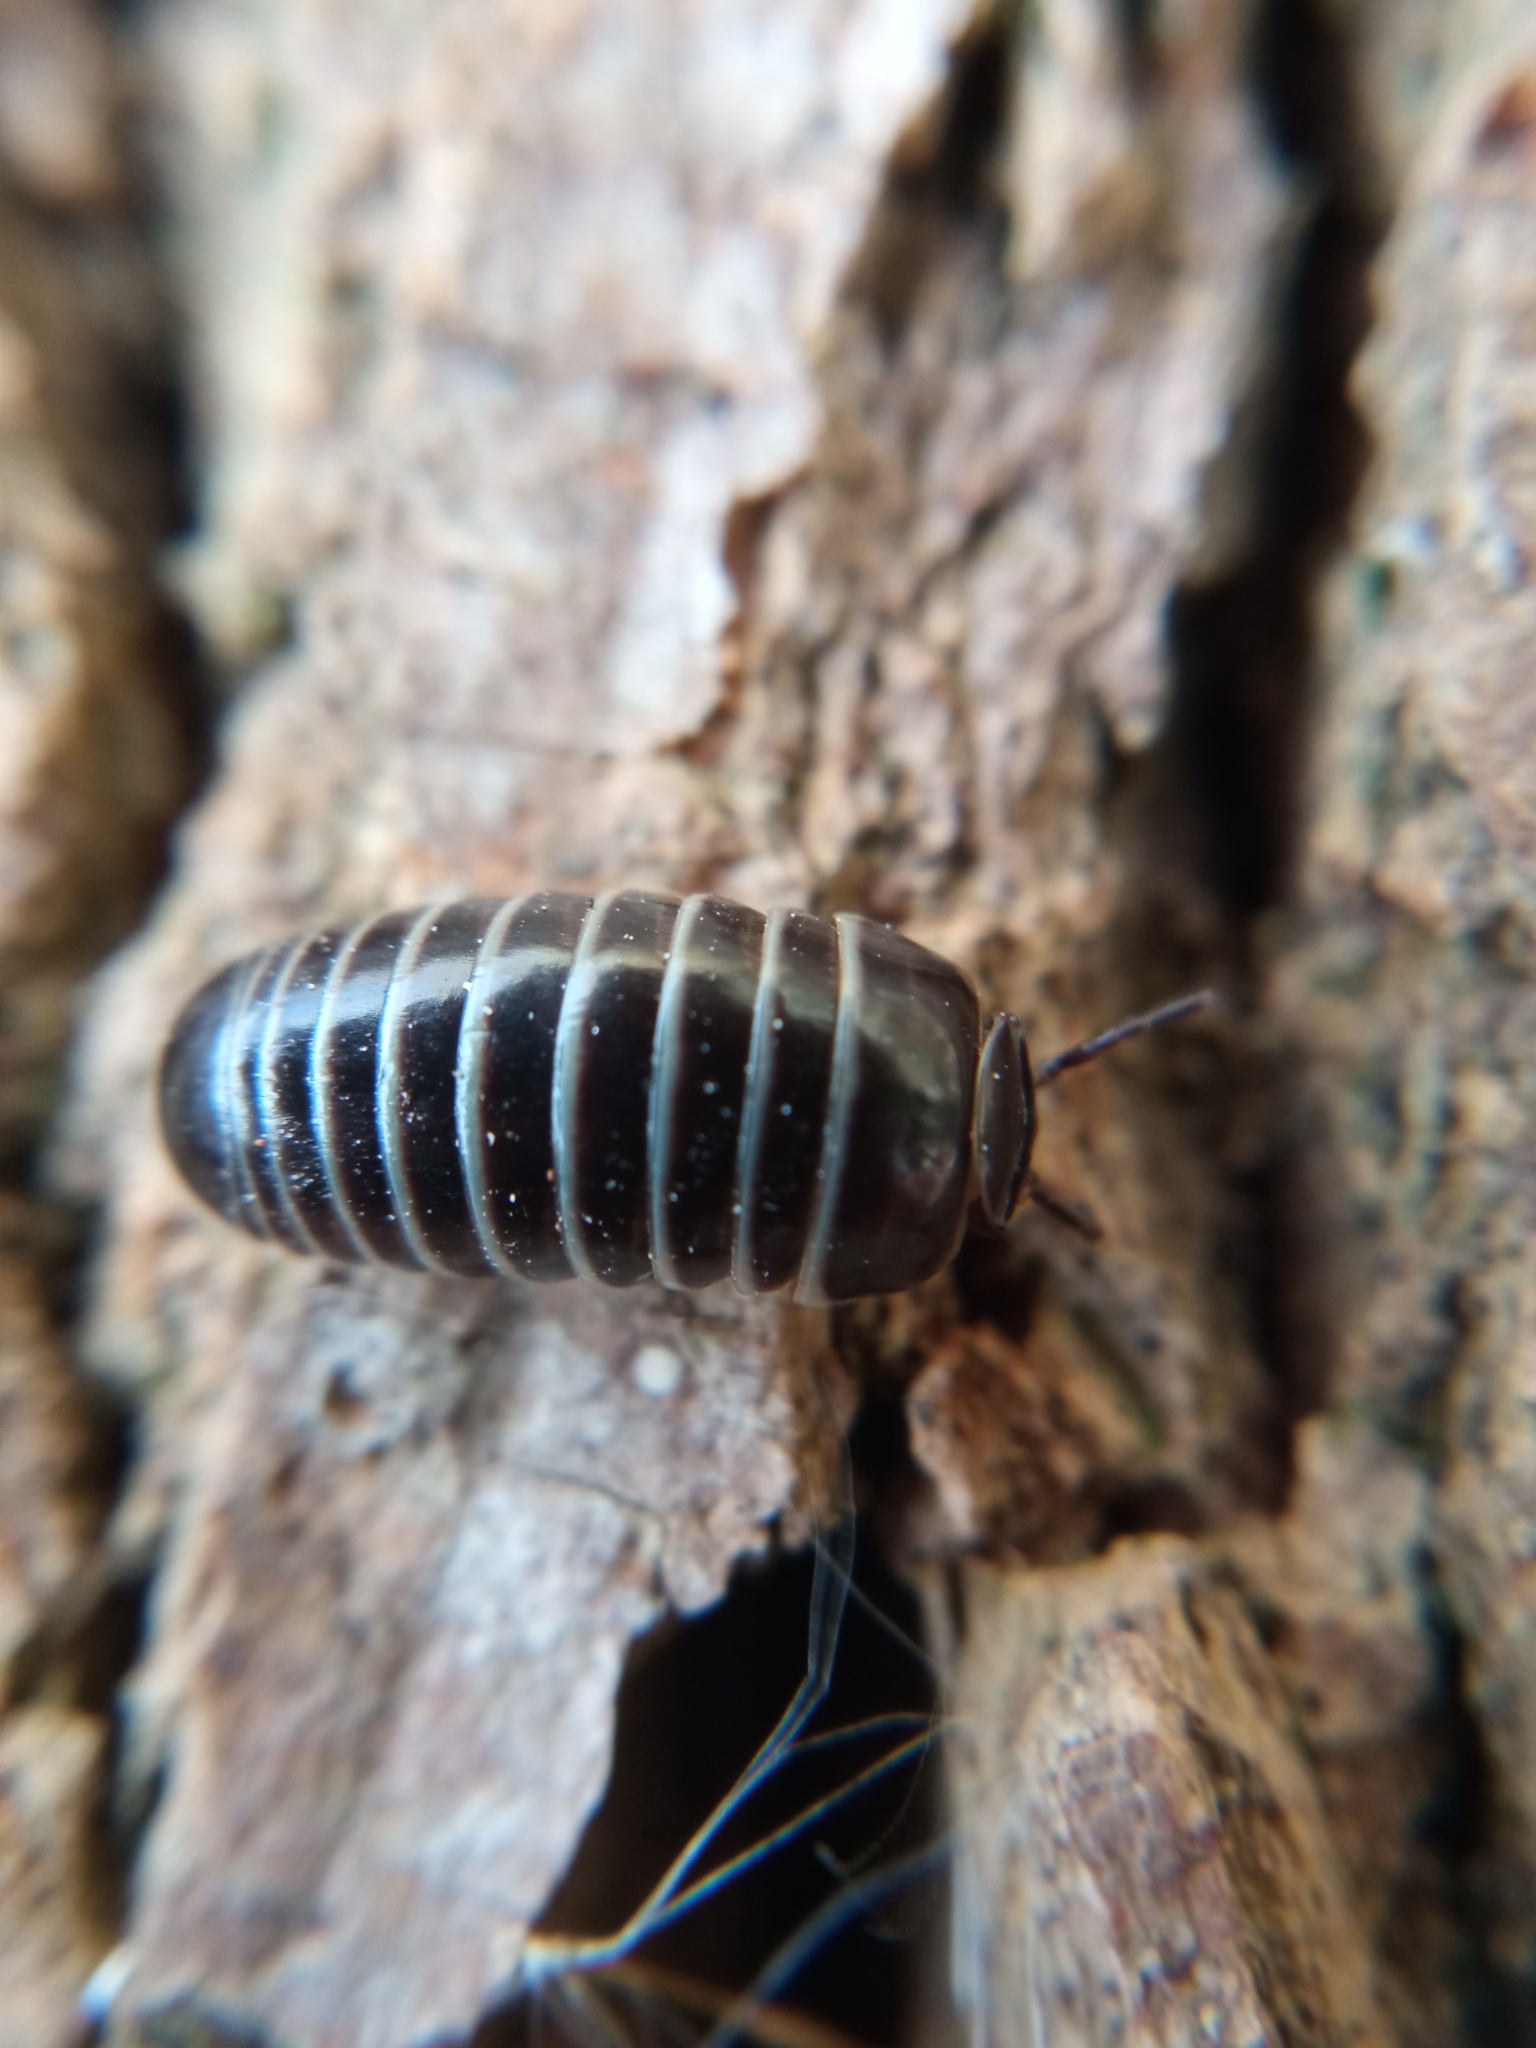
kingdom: Animalia
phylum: Arthropoda
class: Diplopoda
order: Glomerida
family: Glomeridae
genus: Glomeris
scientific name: Glomeris marginata
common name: Bordered pill millipede
